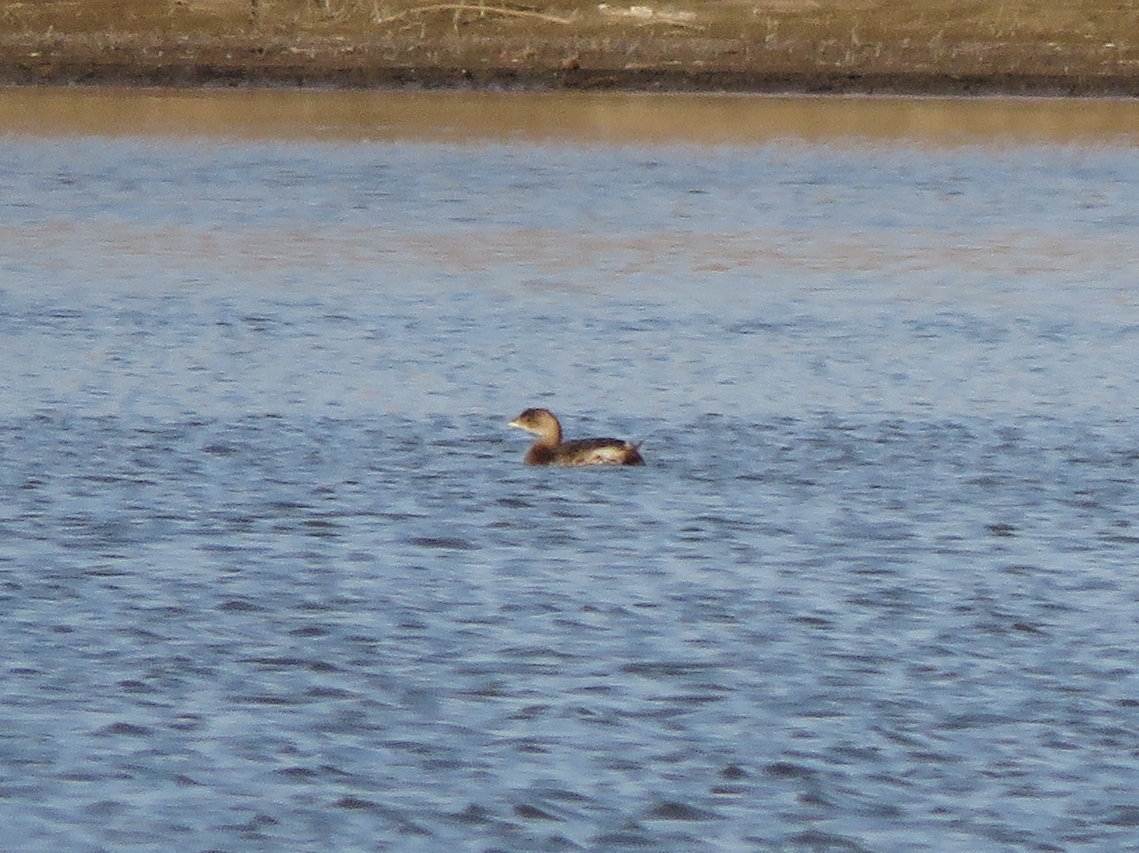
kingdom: Animalia
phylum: Chordata
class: Aves
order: Podicipediformes
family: Podicipedidae
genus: Podilymbus
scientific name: Podilymbus podiceps
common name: Pied-billed grebe
